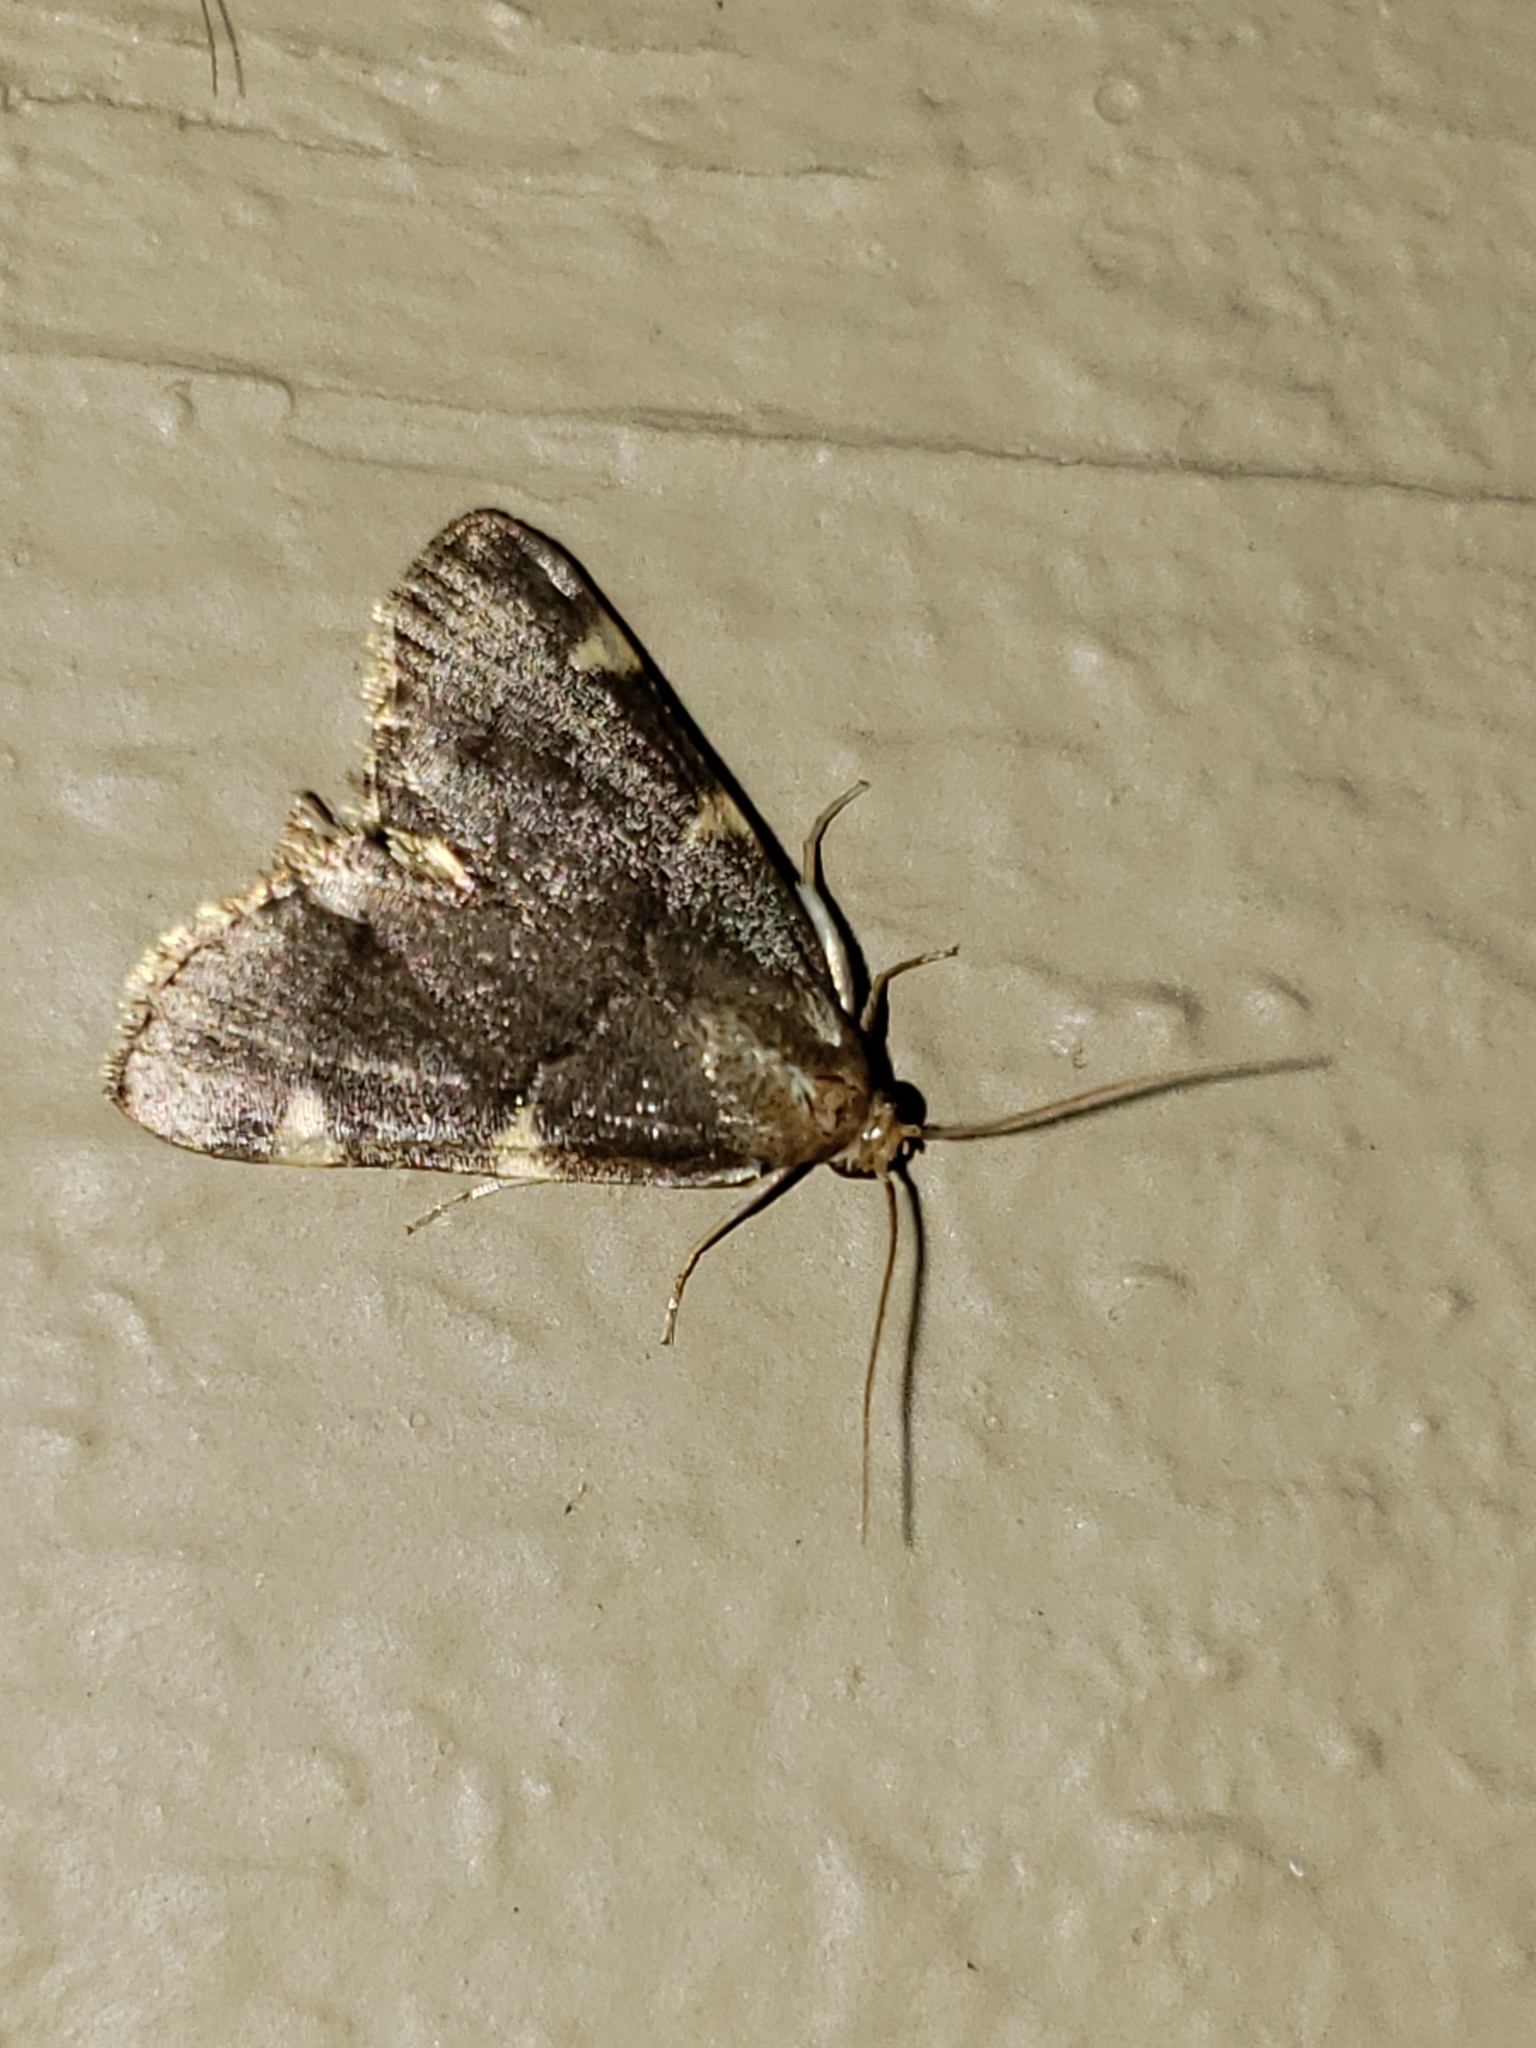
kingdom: Animalia
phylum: Arthropoda
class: Insecta
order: Lepidoptera
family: Pyralidae
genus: Hypsopygia
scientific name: Hypsopygia olinalis
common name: Yellow-fringed dolichomia moth
